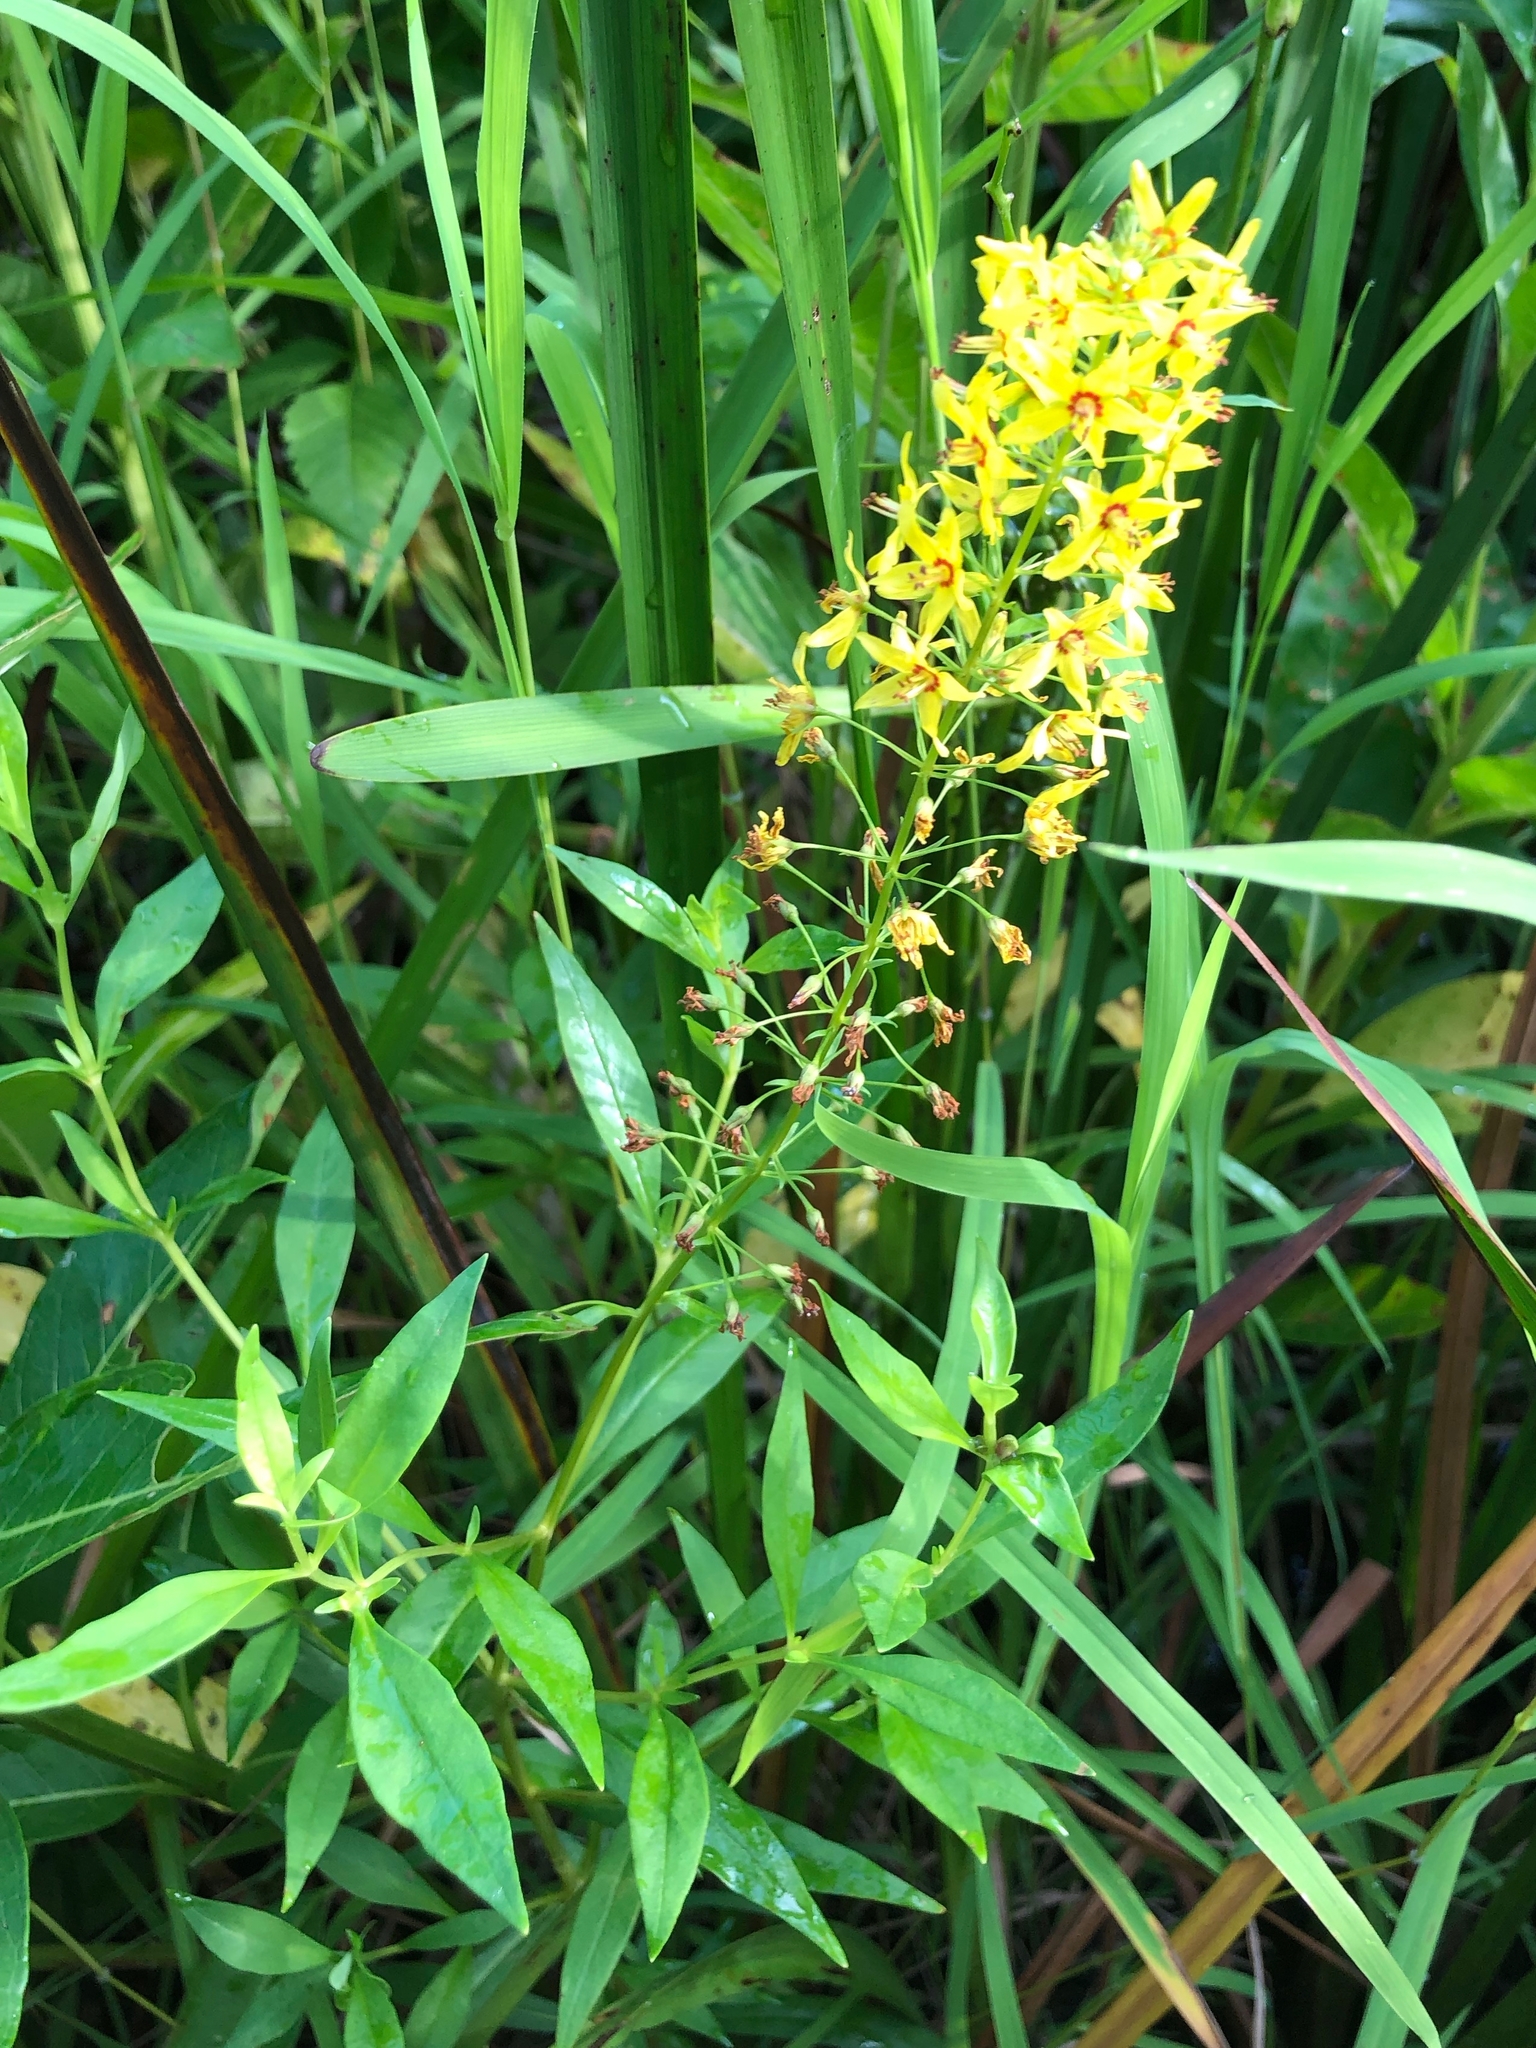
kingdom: Plantae
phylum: Tracheophyta
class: Magnoliopsida
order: Ericales
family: Primulaceae
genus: Lysimachia
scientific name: Lysimachia terrestris
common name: Lake loosestrife
